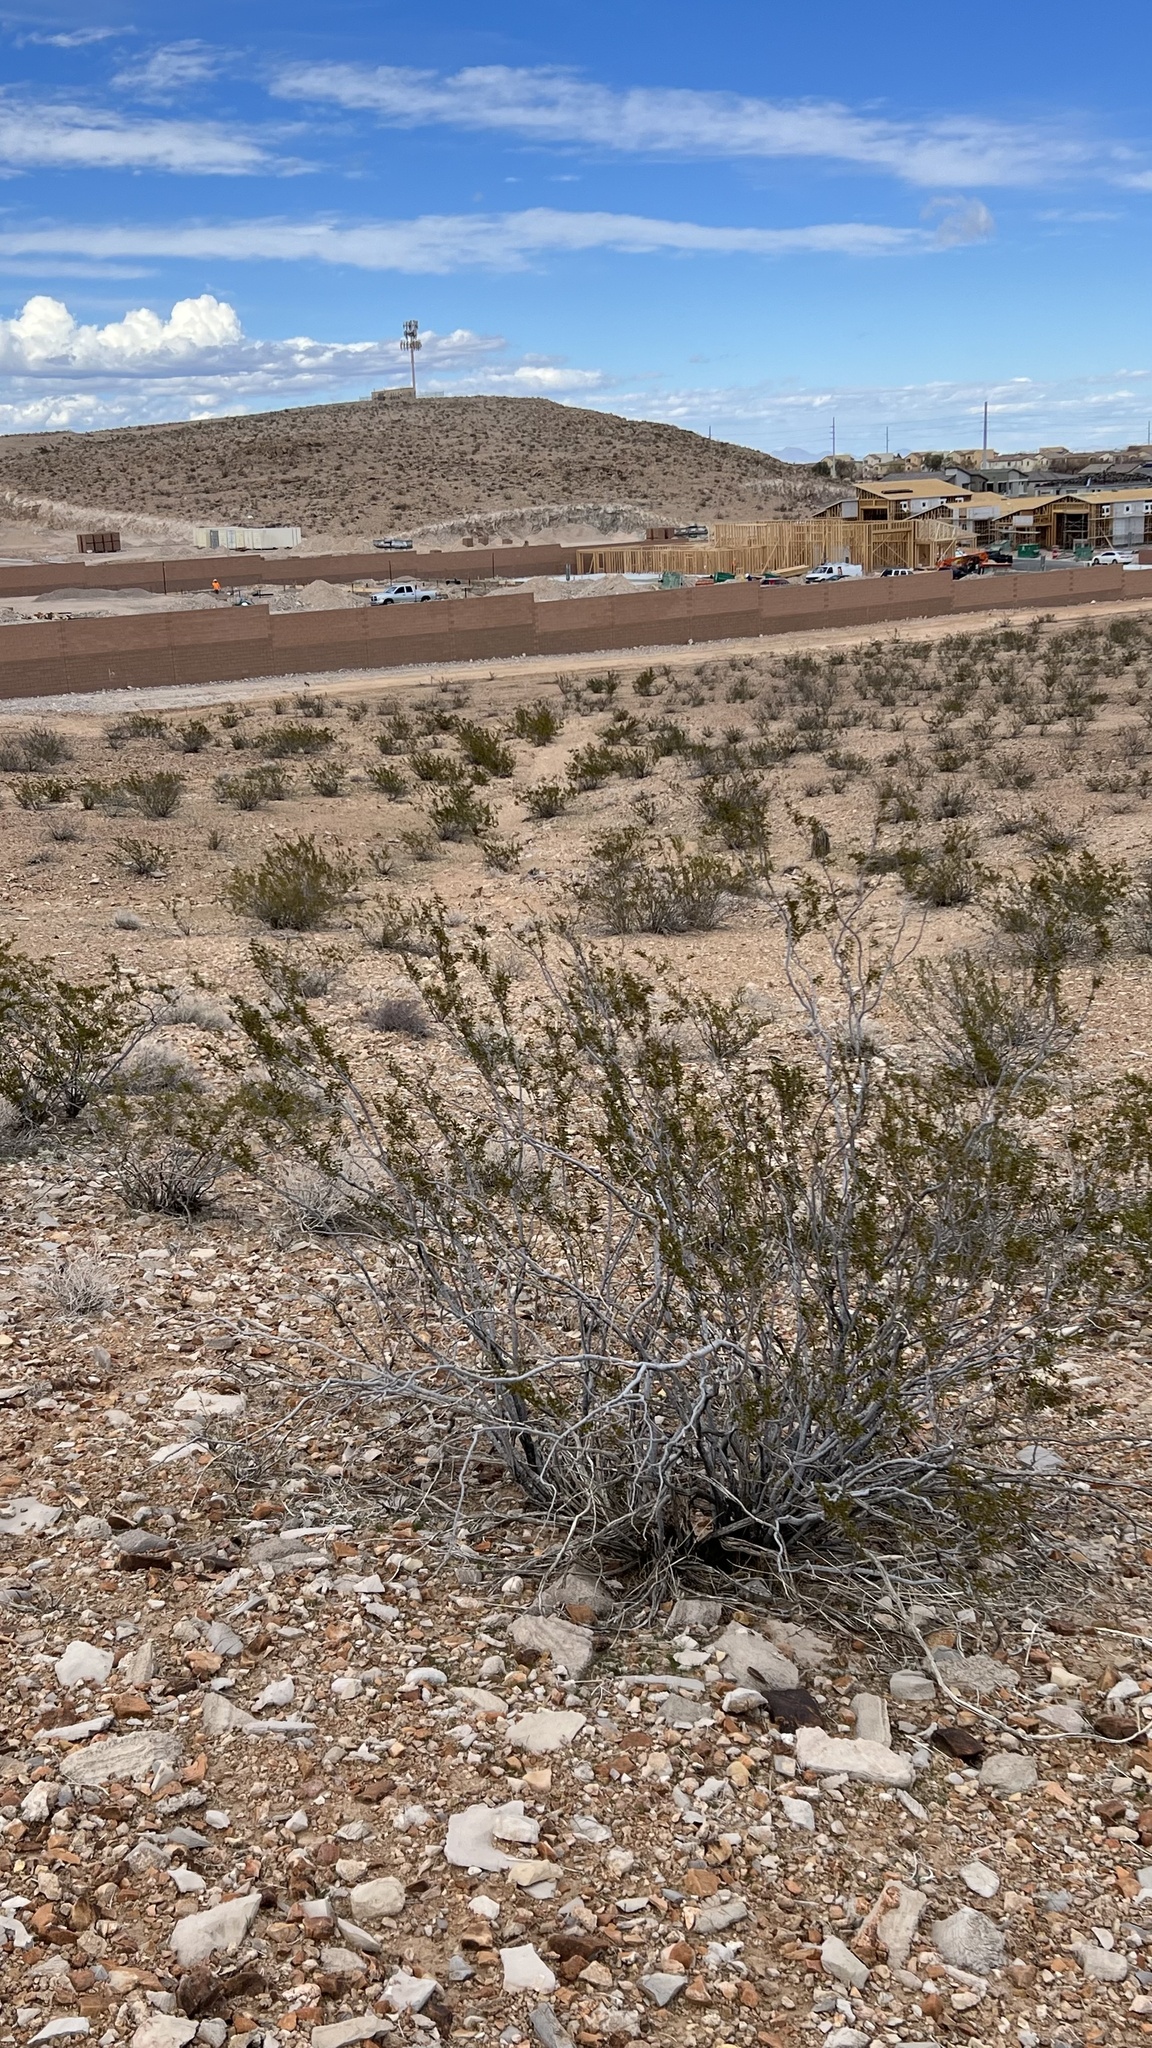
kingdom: Plantae
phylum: Tracheophyta
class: Magnoliopsida
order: Zygophyllales
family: Zygophyllaceae
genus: Larrea
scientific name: Larrea tridentata
